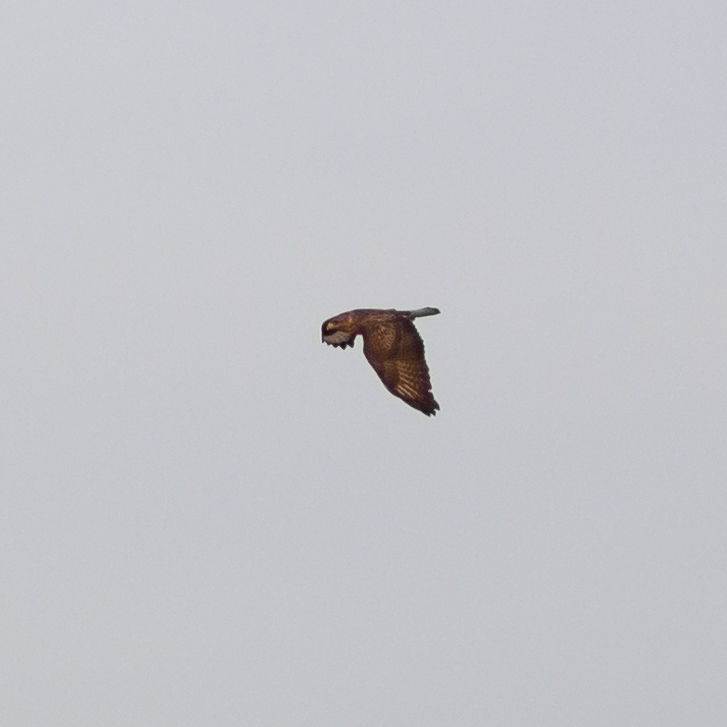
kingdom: Animalia
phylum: Chordata
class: Aves
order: Accipitriformes
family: Accipitridae
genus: Buteo
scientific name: Buteo buteo
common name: Common buzzard
